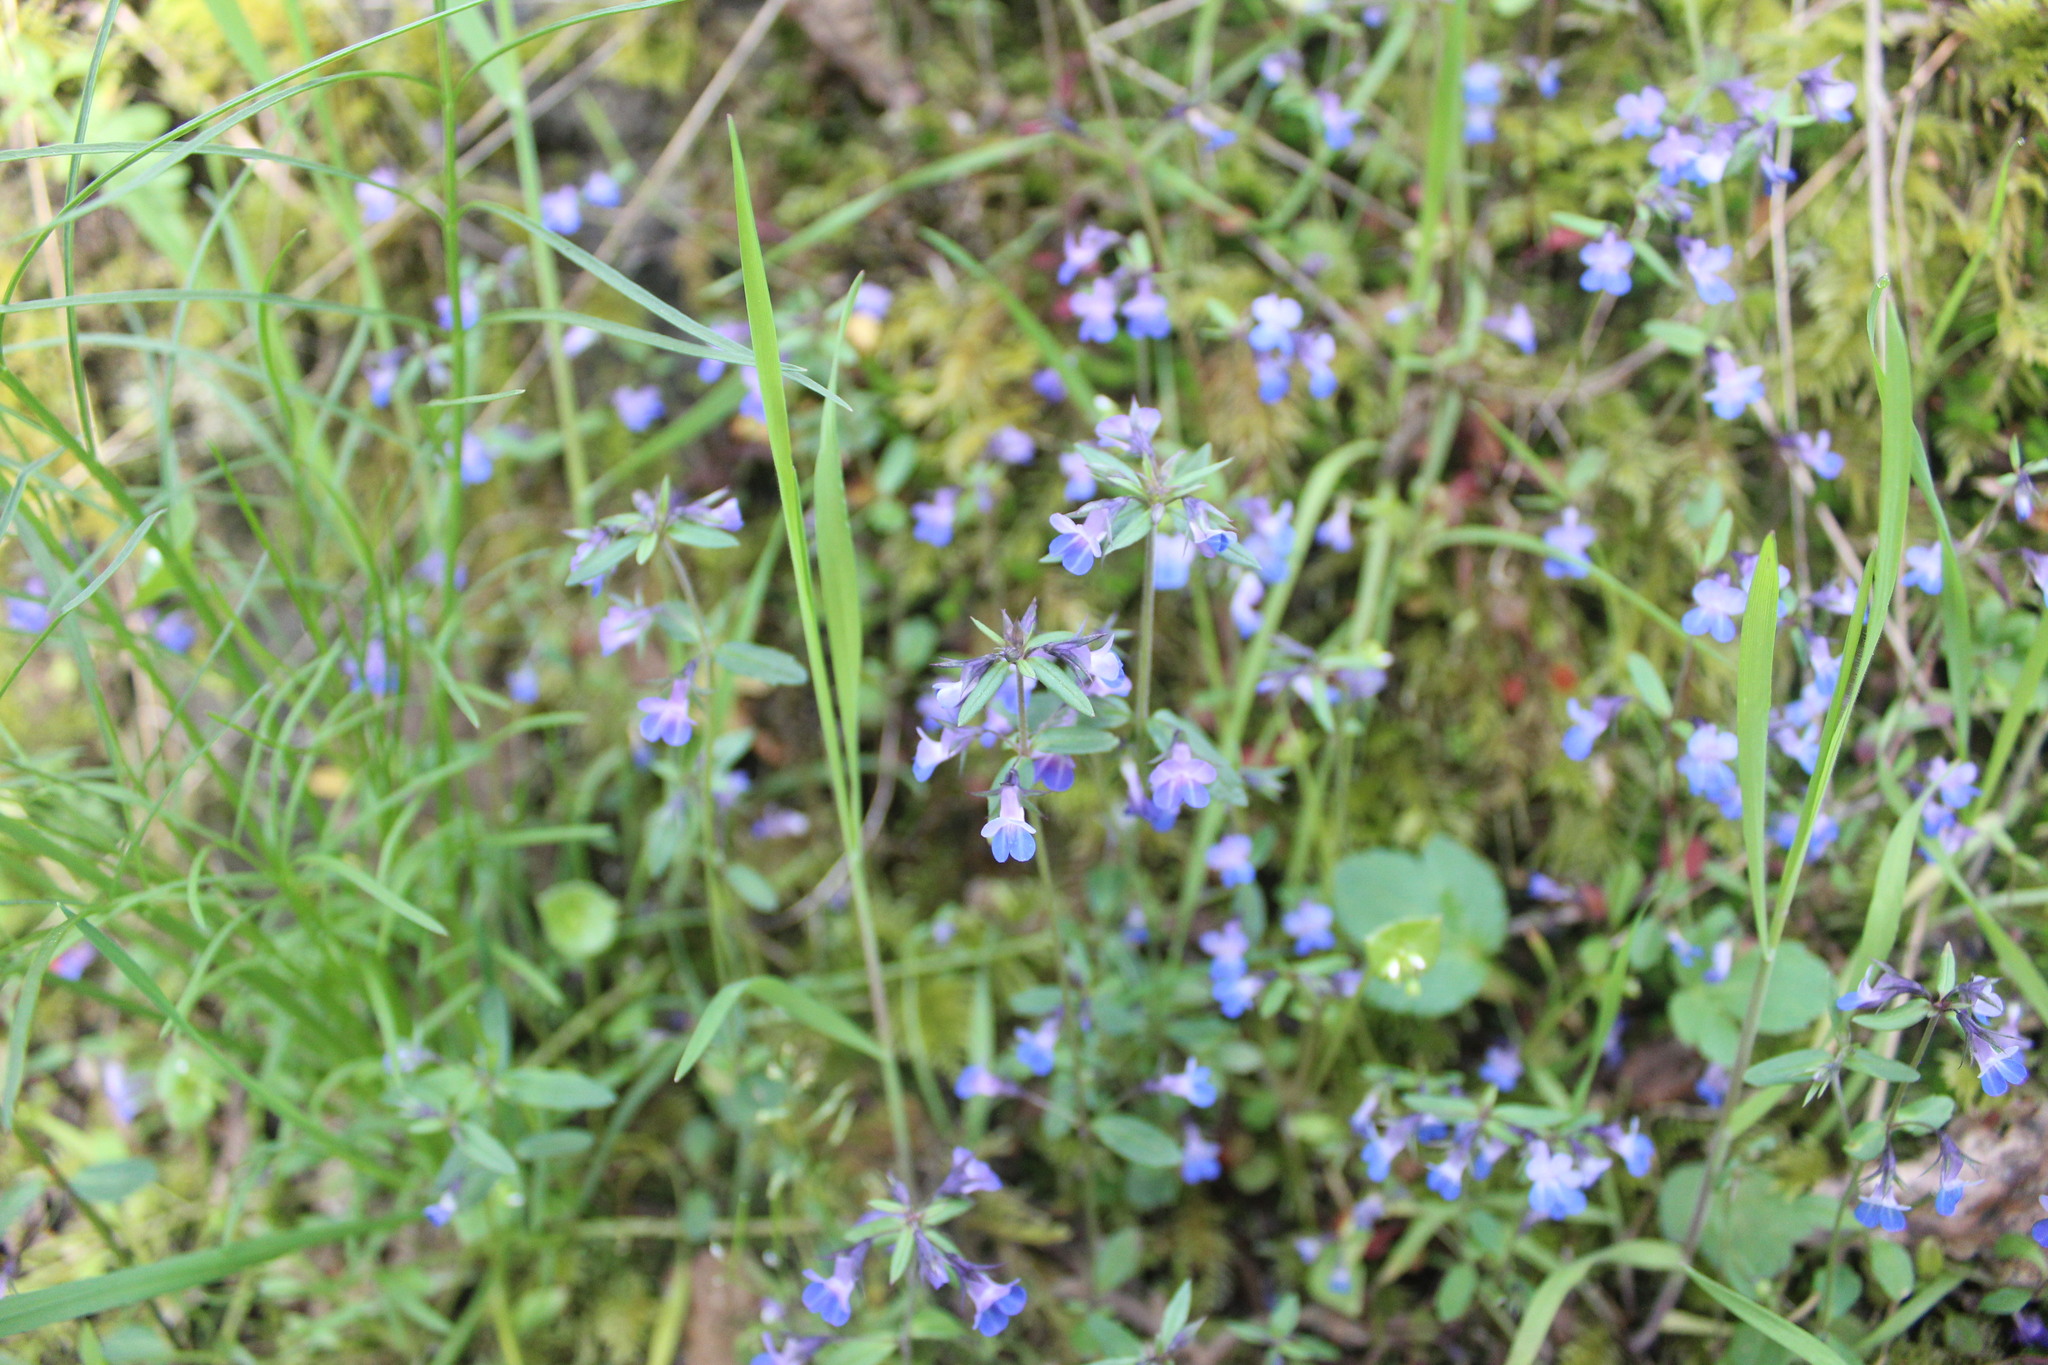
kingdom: Plantae
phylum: Tracheophyta
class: Magnoliopsida
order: Lamiales
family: Plantaginaceae
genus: Collinsia
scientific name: Collinsia parviflora
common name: Blue-lips
